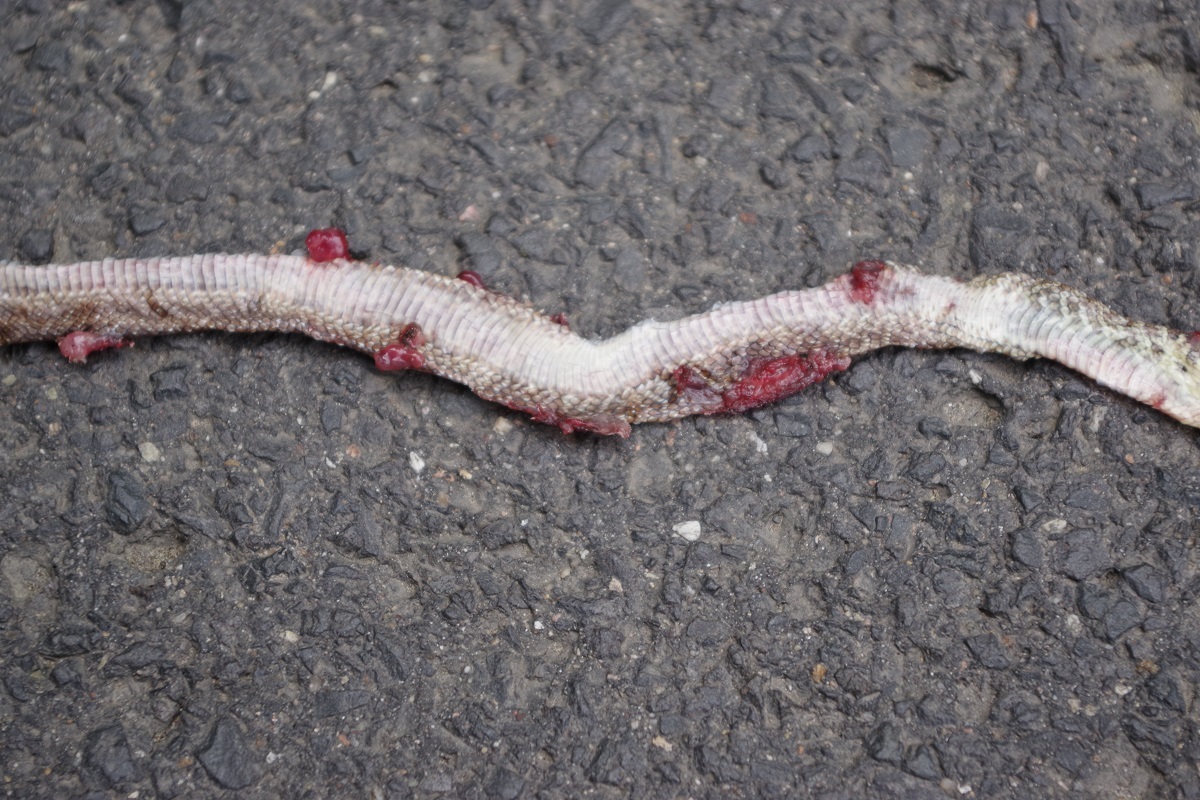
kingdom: Animalia
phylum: Chordata
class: Squamata
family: Colubridae
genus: Zamenis
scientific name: Zamenis longissimus
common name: Aesculapean snake
